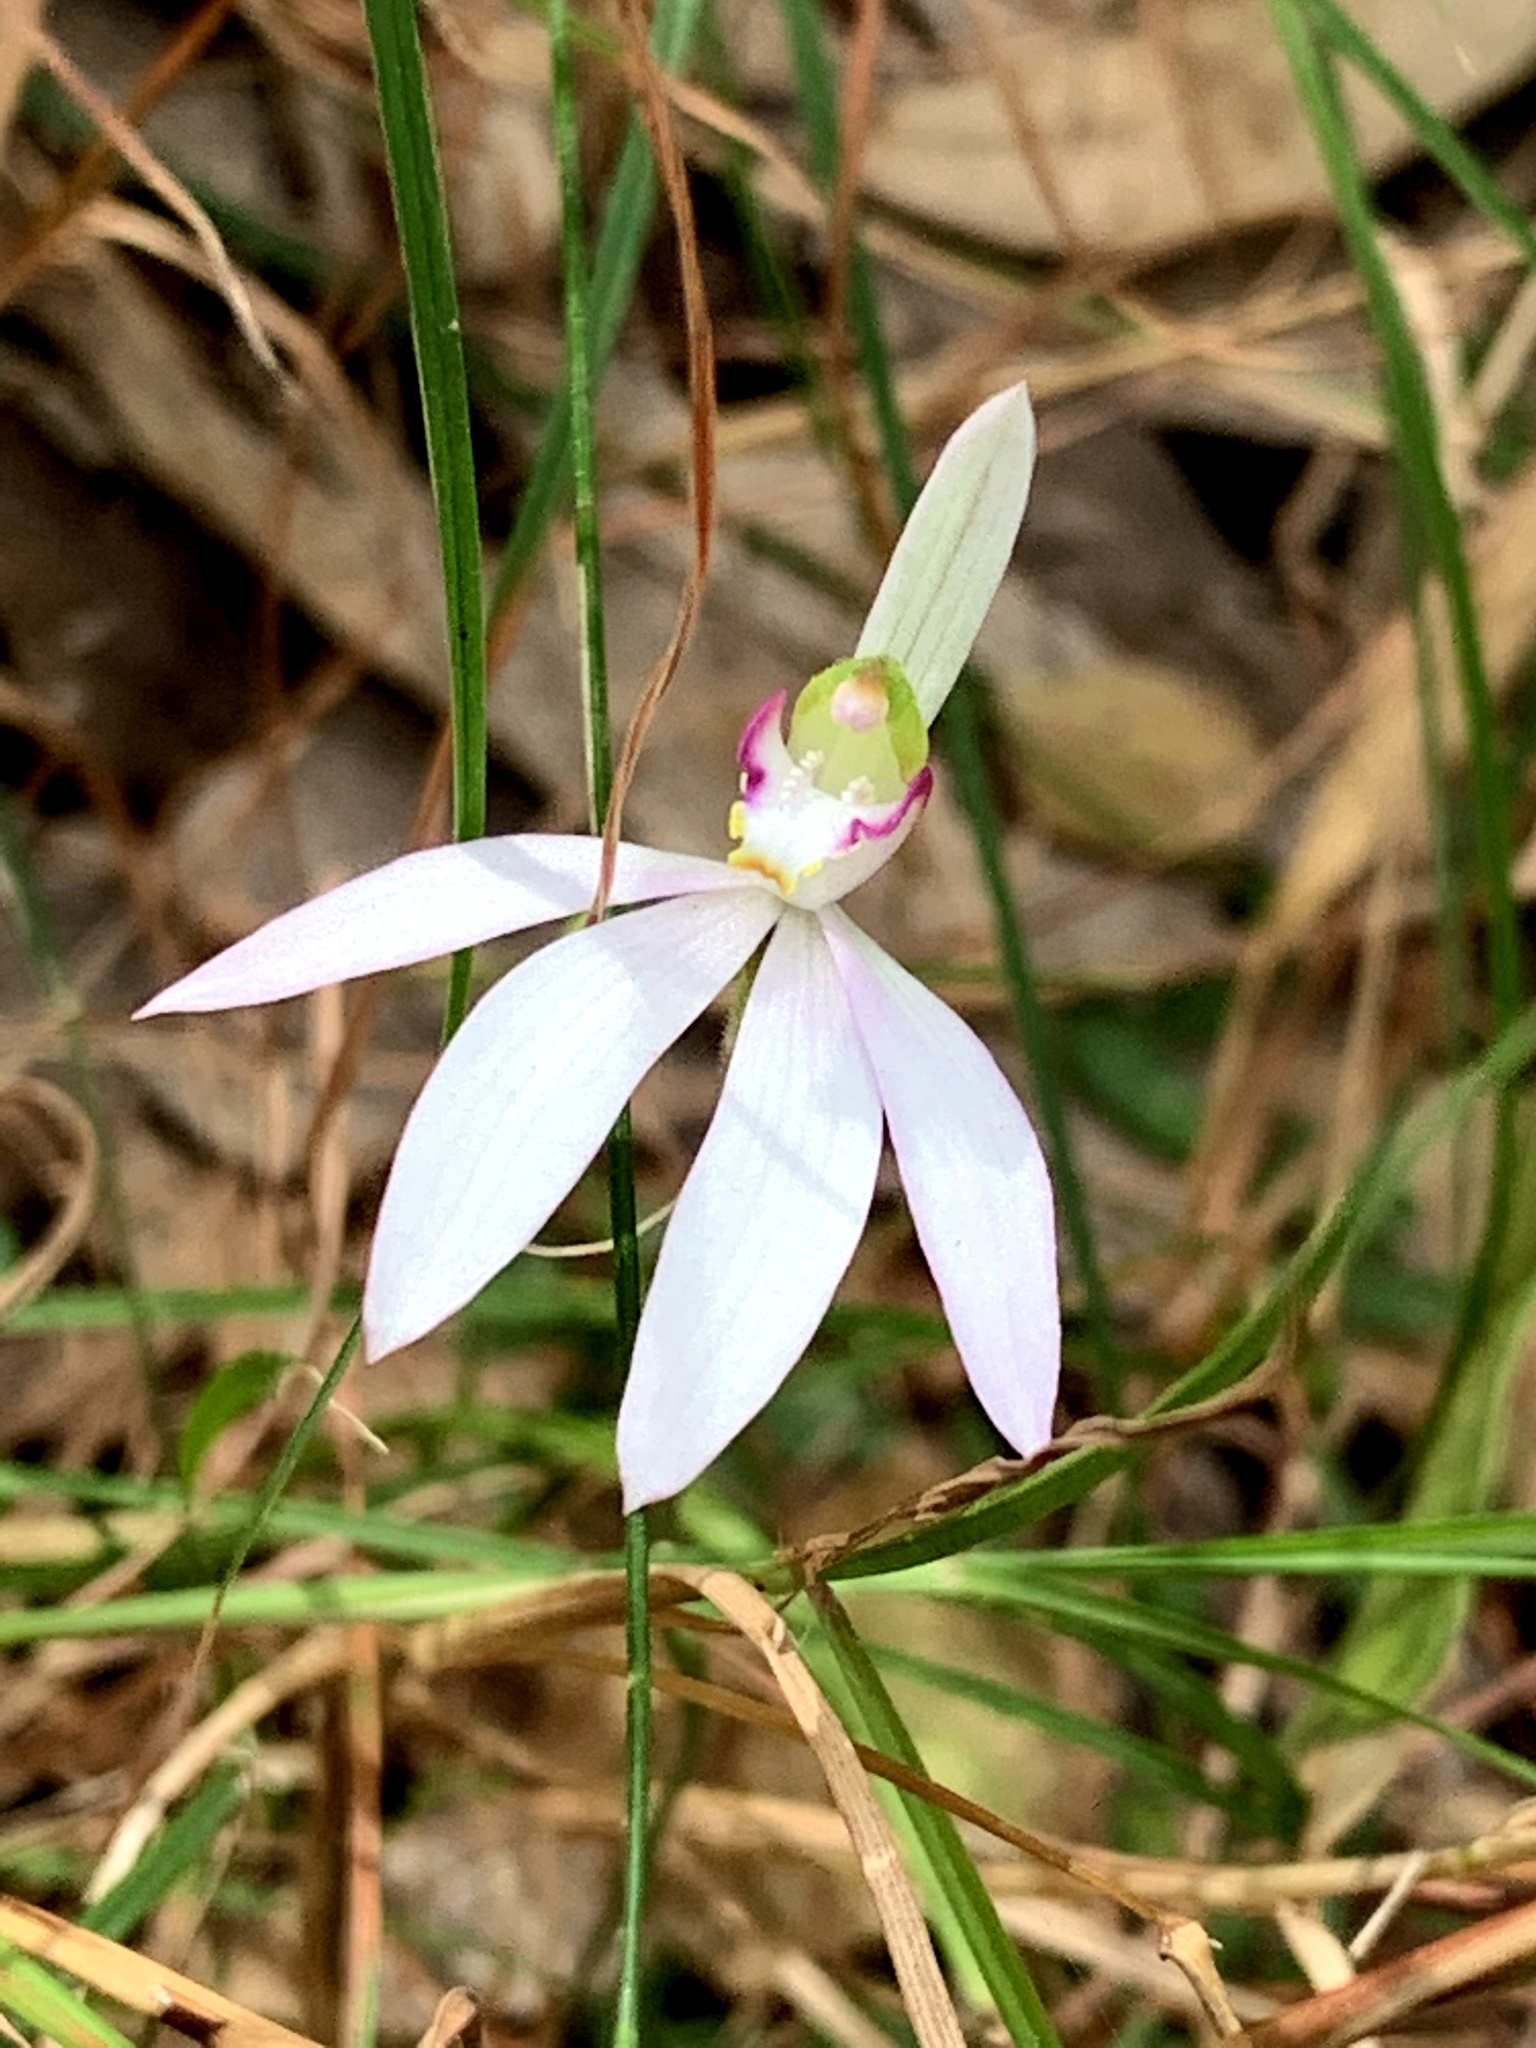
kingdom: Plantae
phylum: Tracheophyta
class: Liliopsida
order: Asparagales
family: Orchidaceae
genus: Caladenia
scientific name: Caladenia catenata
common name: White caladenia
